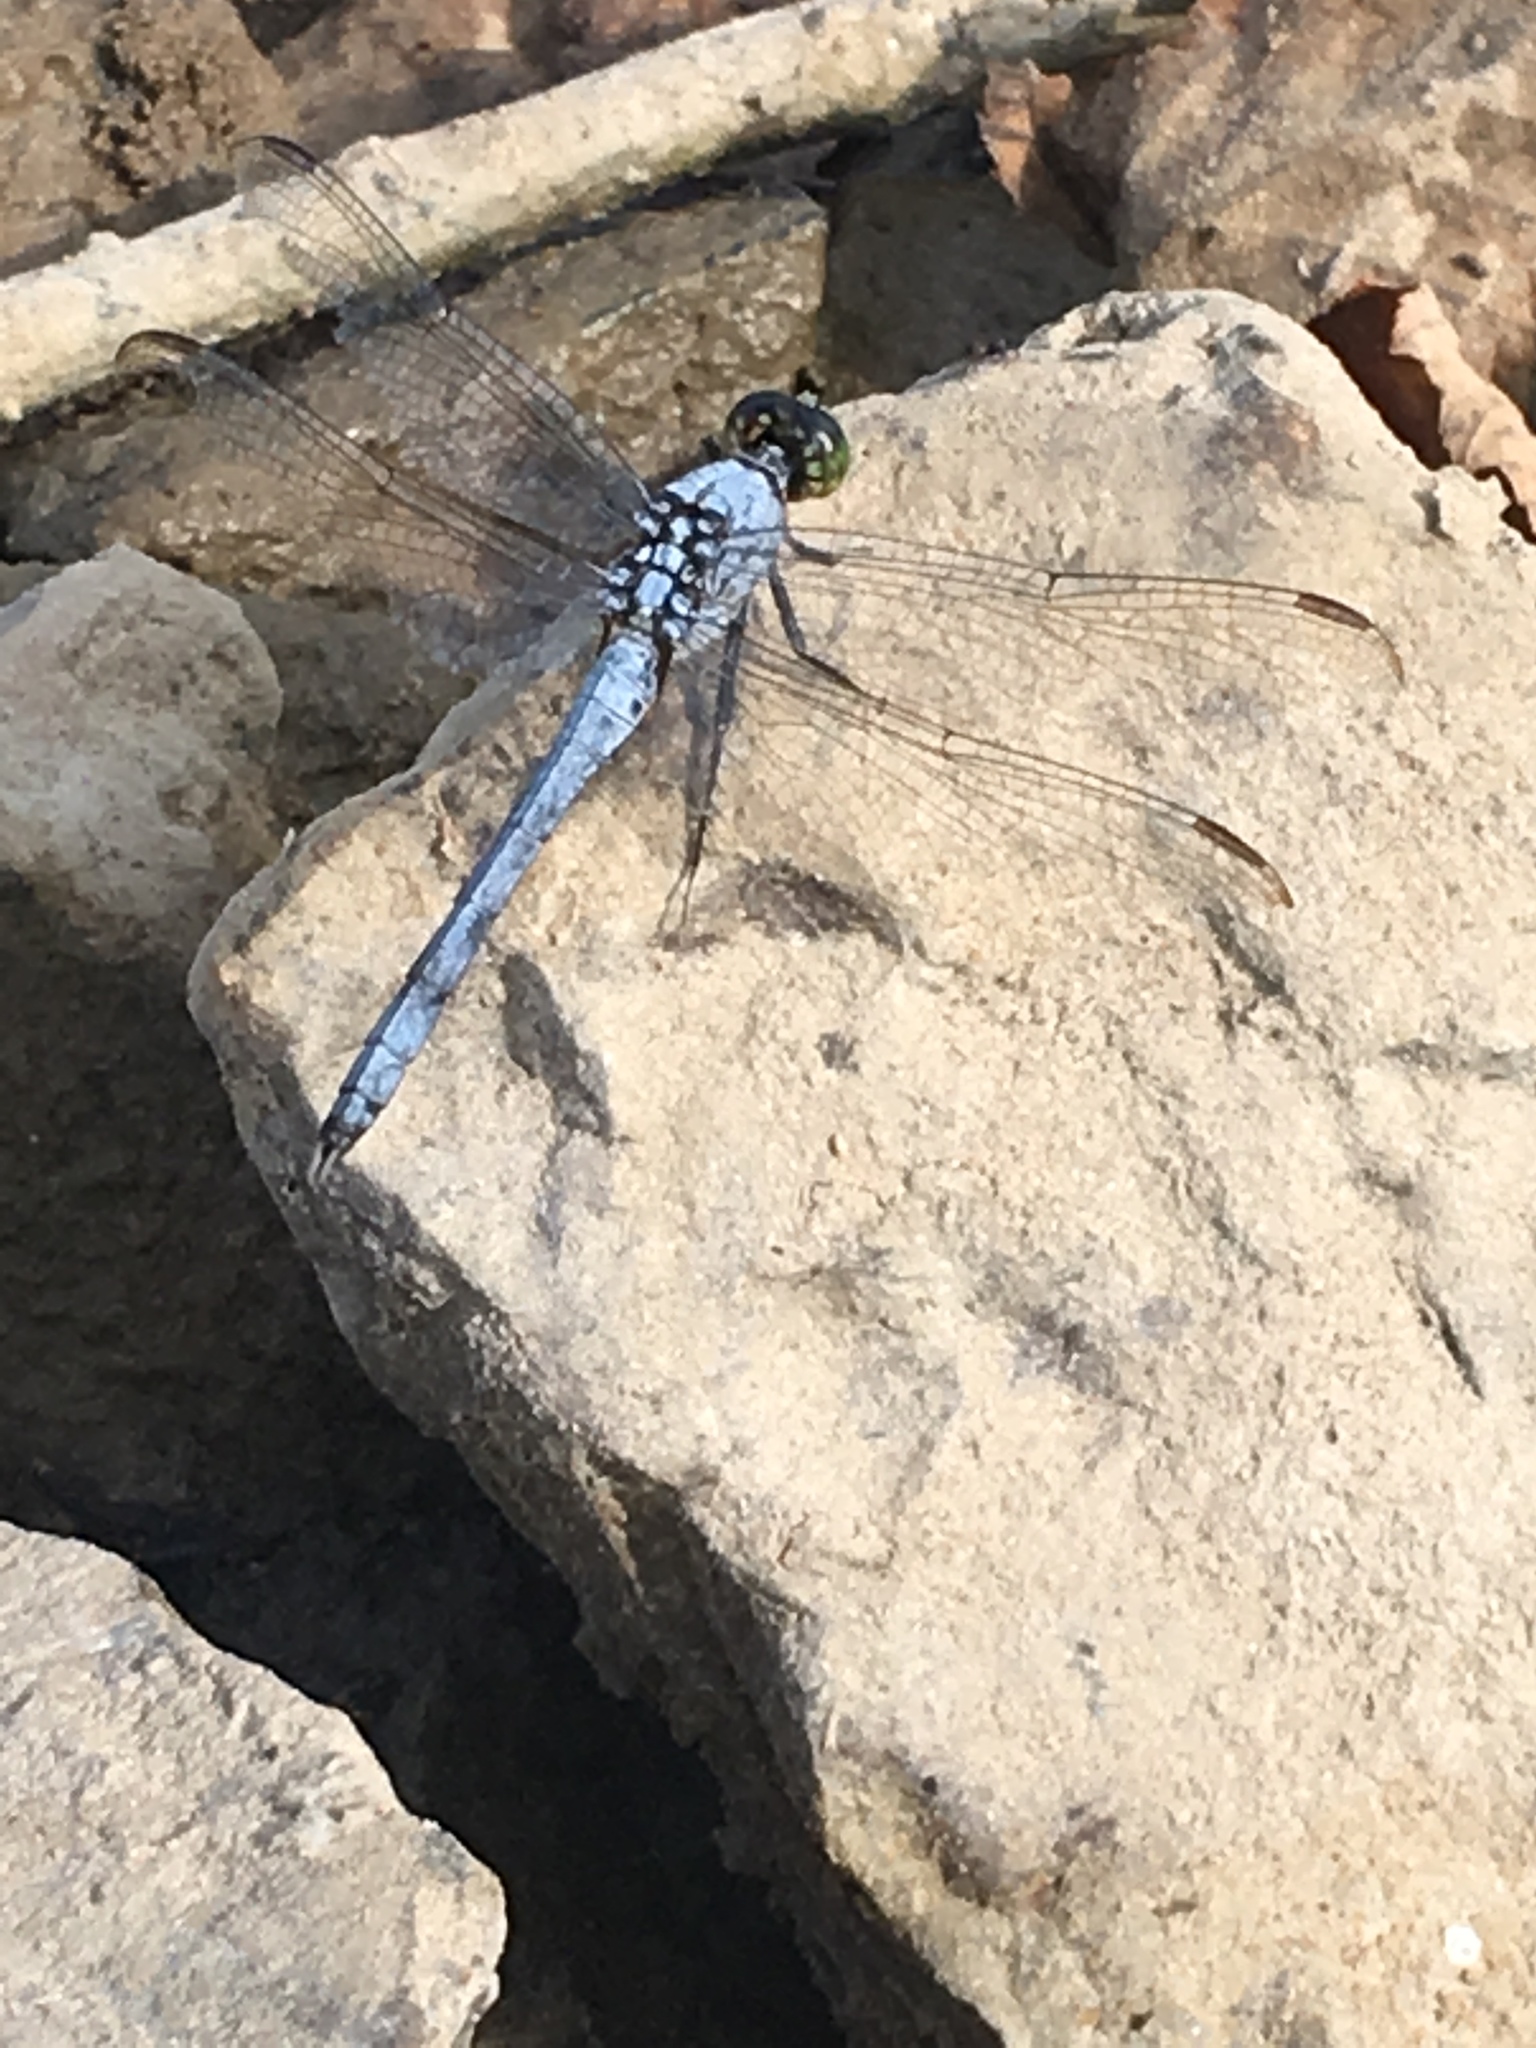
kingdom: Animalia
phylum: Arthropoda
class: Insecta
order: Odonata
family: Libellulidae
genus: Erythemis
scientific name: Erythemis simplicicollis
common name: Eastern pondhawk
